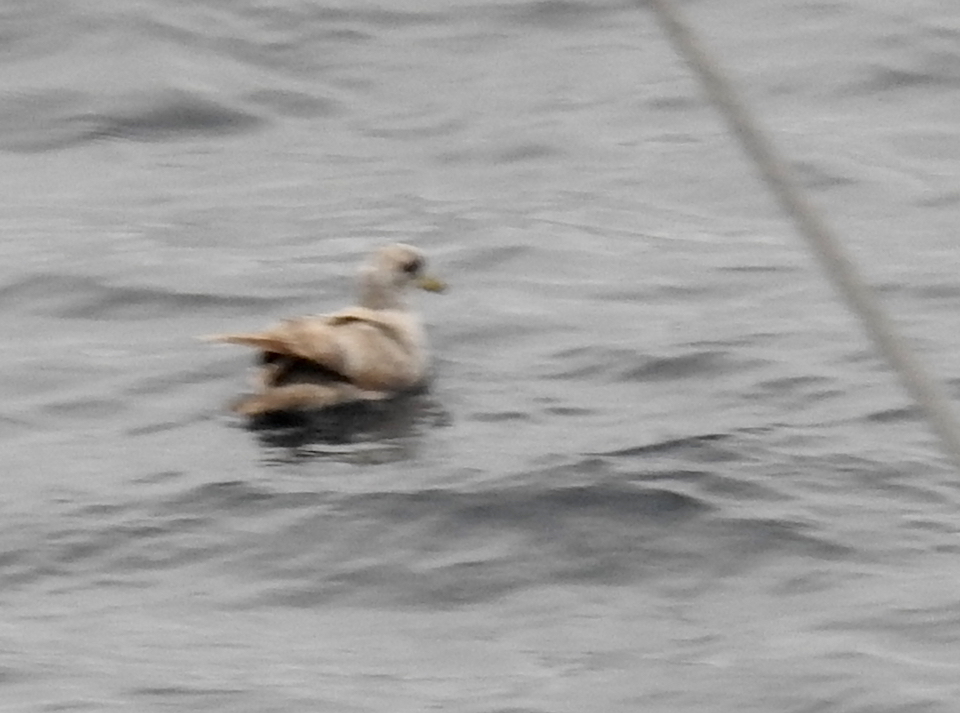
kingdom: Animalia
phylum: Chordata
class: Aves
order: Procellariiformes
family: Procellariidae
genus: Fulmarus
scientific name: Fulmarus glacialis
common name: Northern fulmar
